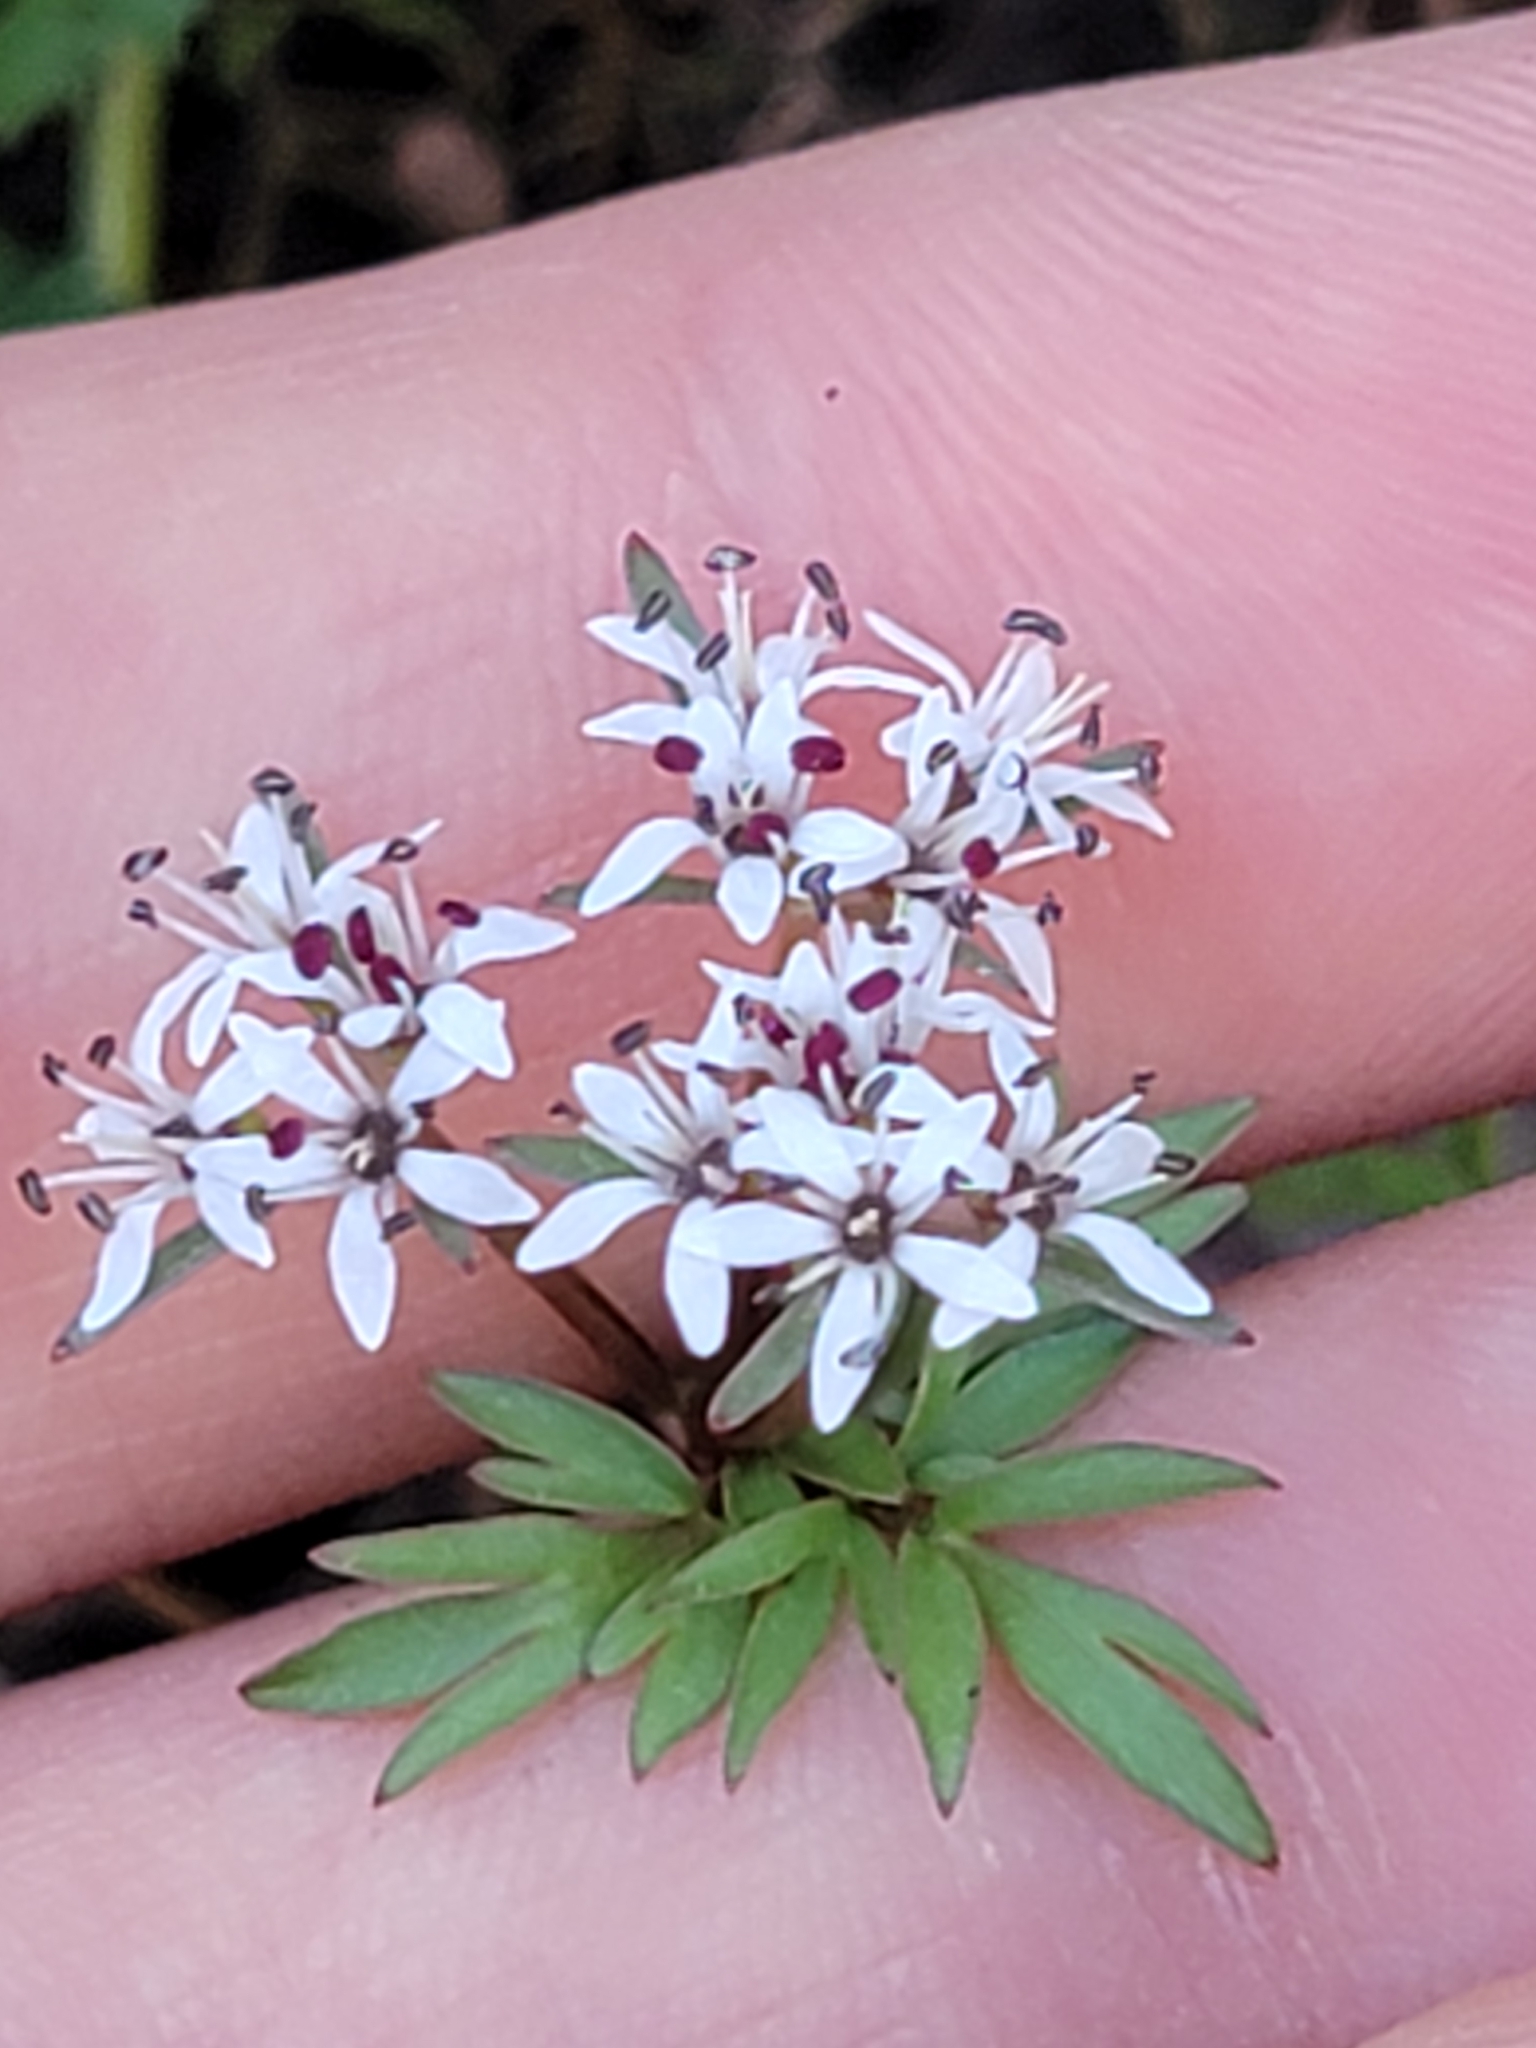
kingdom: Plantae
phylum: Tracheophyta
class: Magnoliopsida
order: Apiales
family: Apiaceae
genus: Erigenia
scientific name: Erigenia bulbosa
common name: Pepper-and-salt
